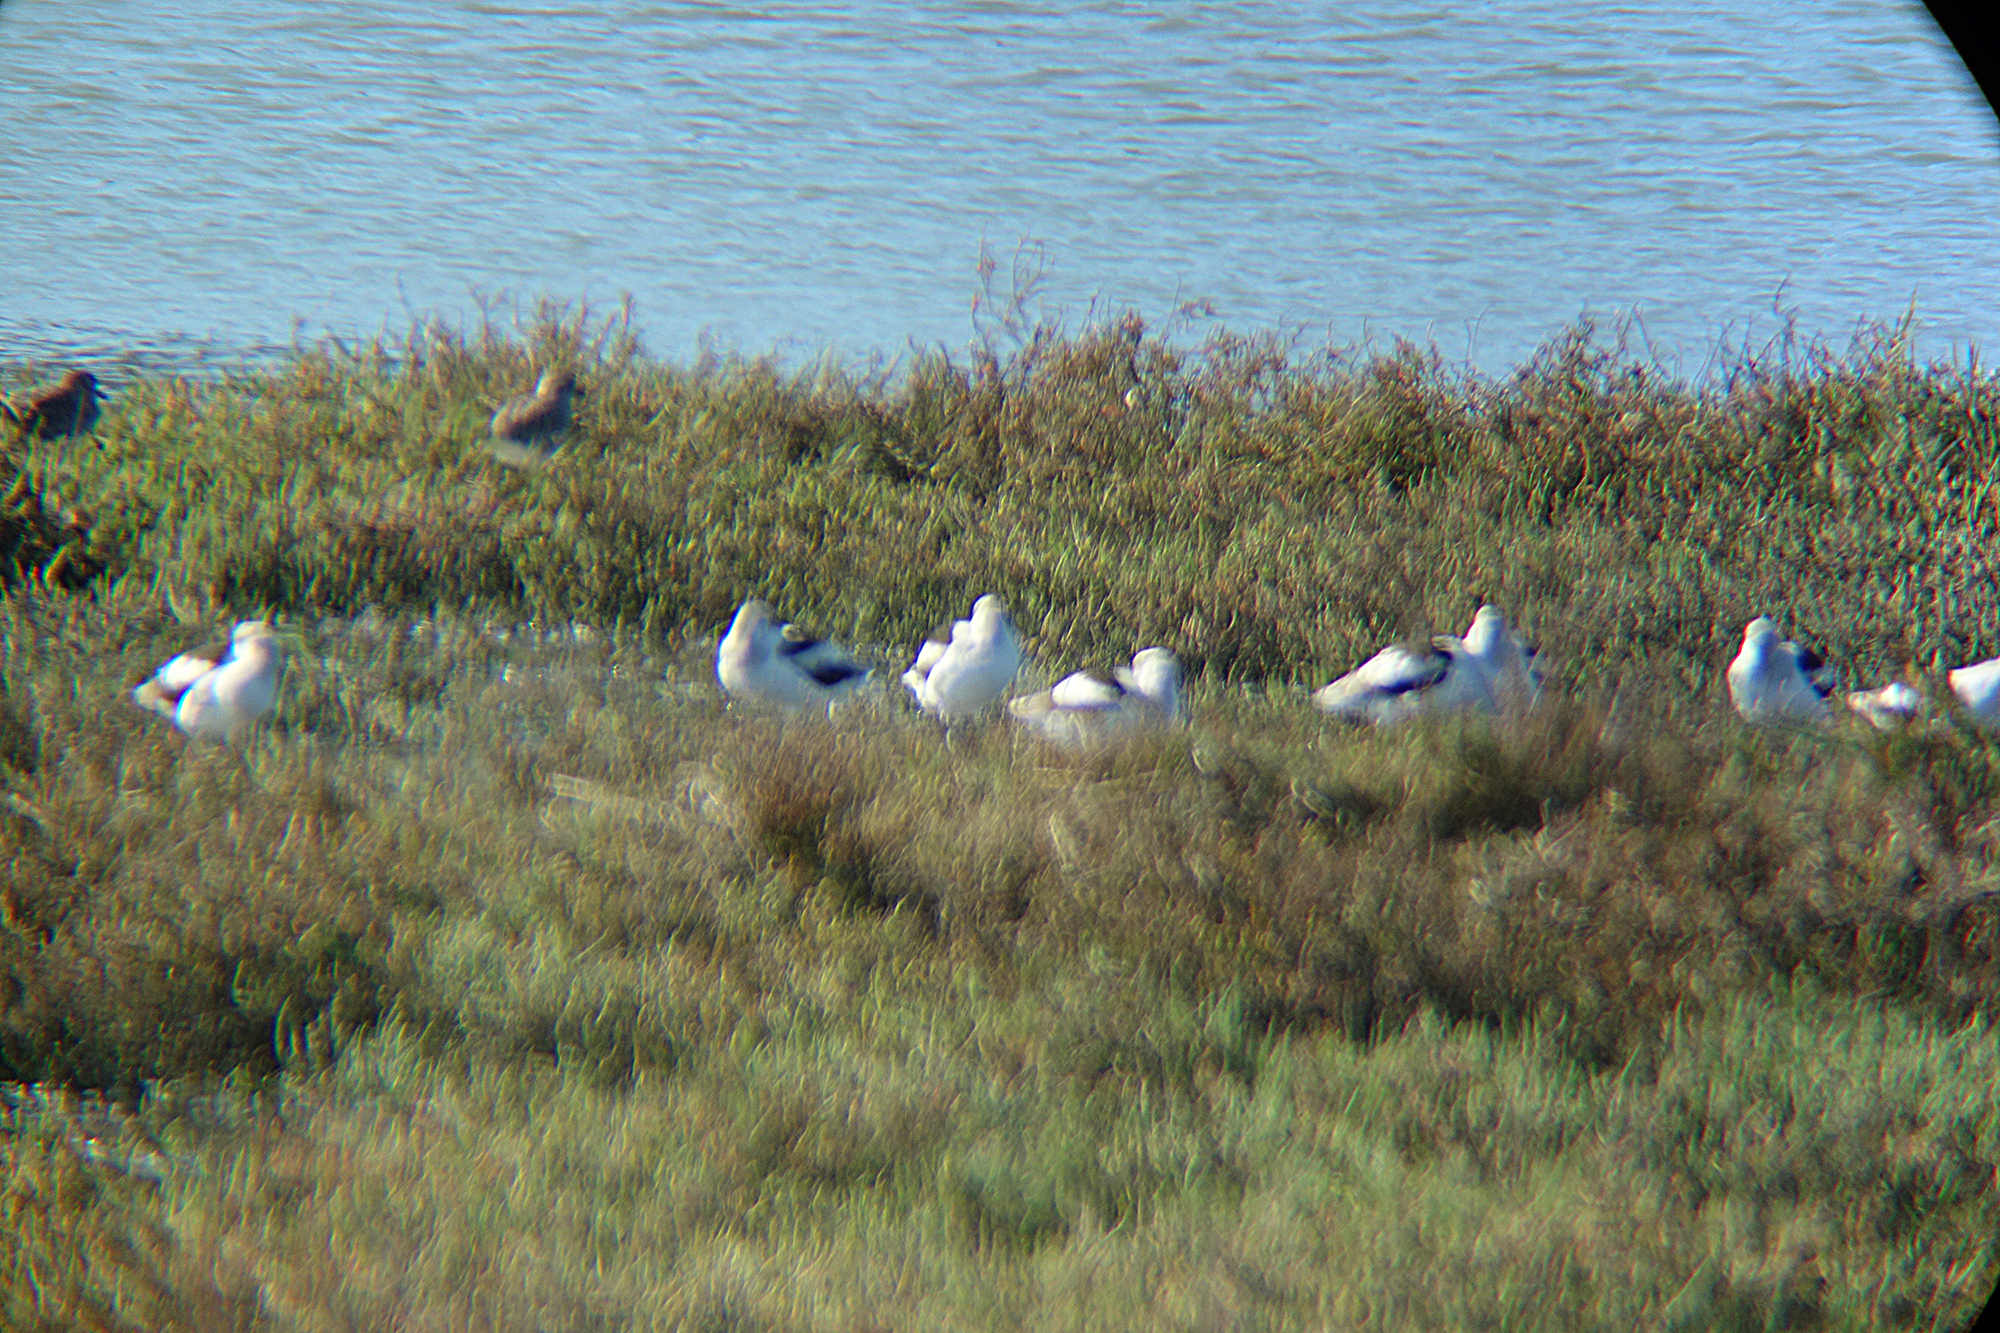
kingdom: Animalia
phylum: Chordata
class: Aves
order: Charadriiformes
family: Recurvirostridae
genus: Recurvirostra
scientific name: Recurvirostra americana
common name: American avocet
